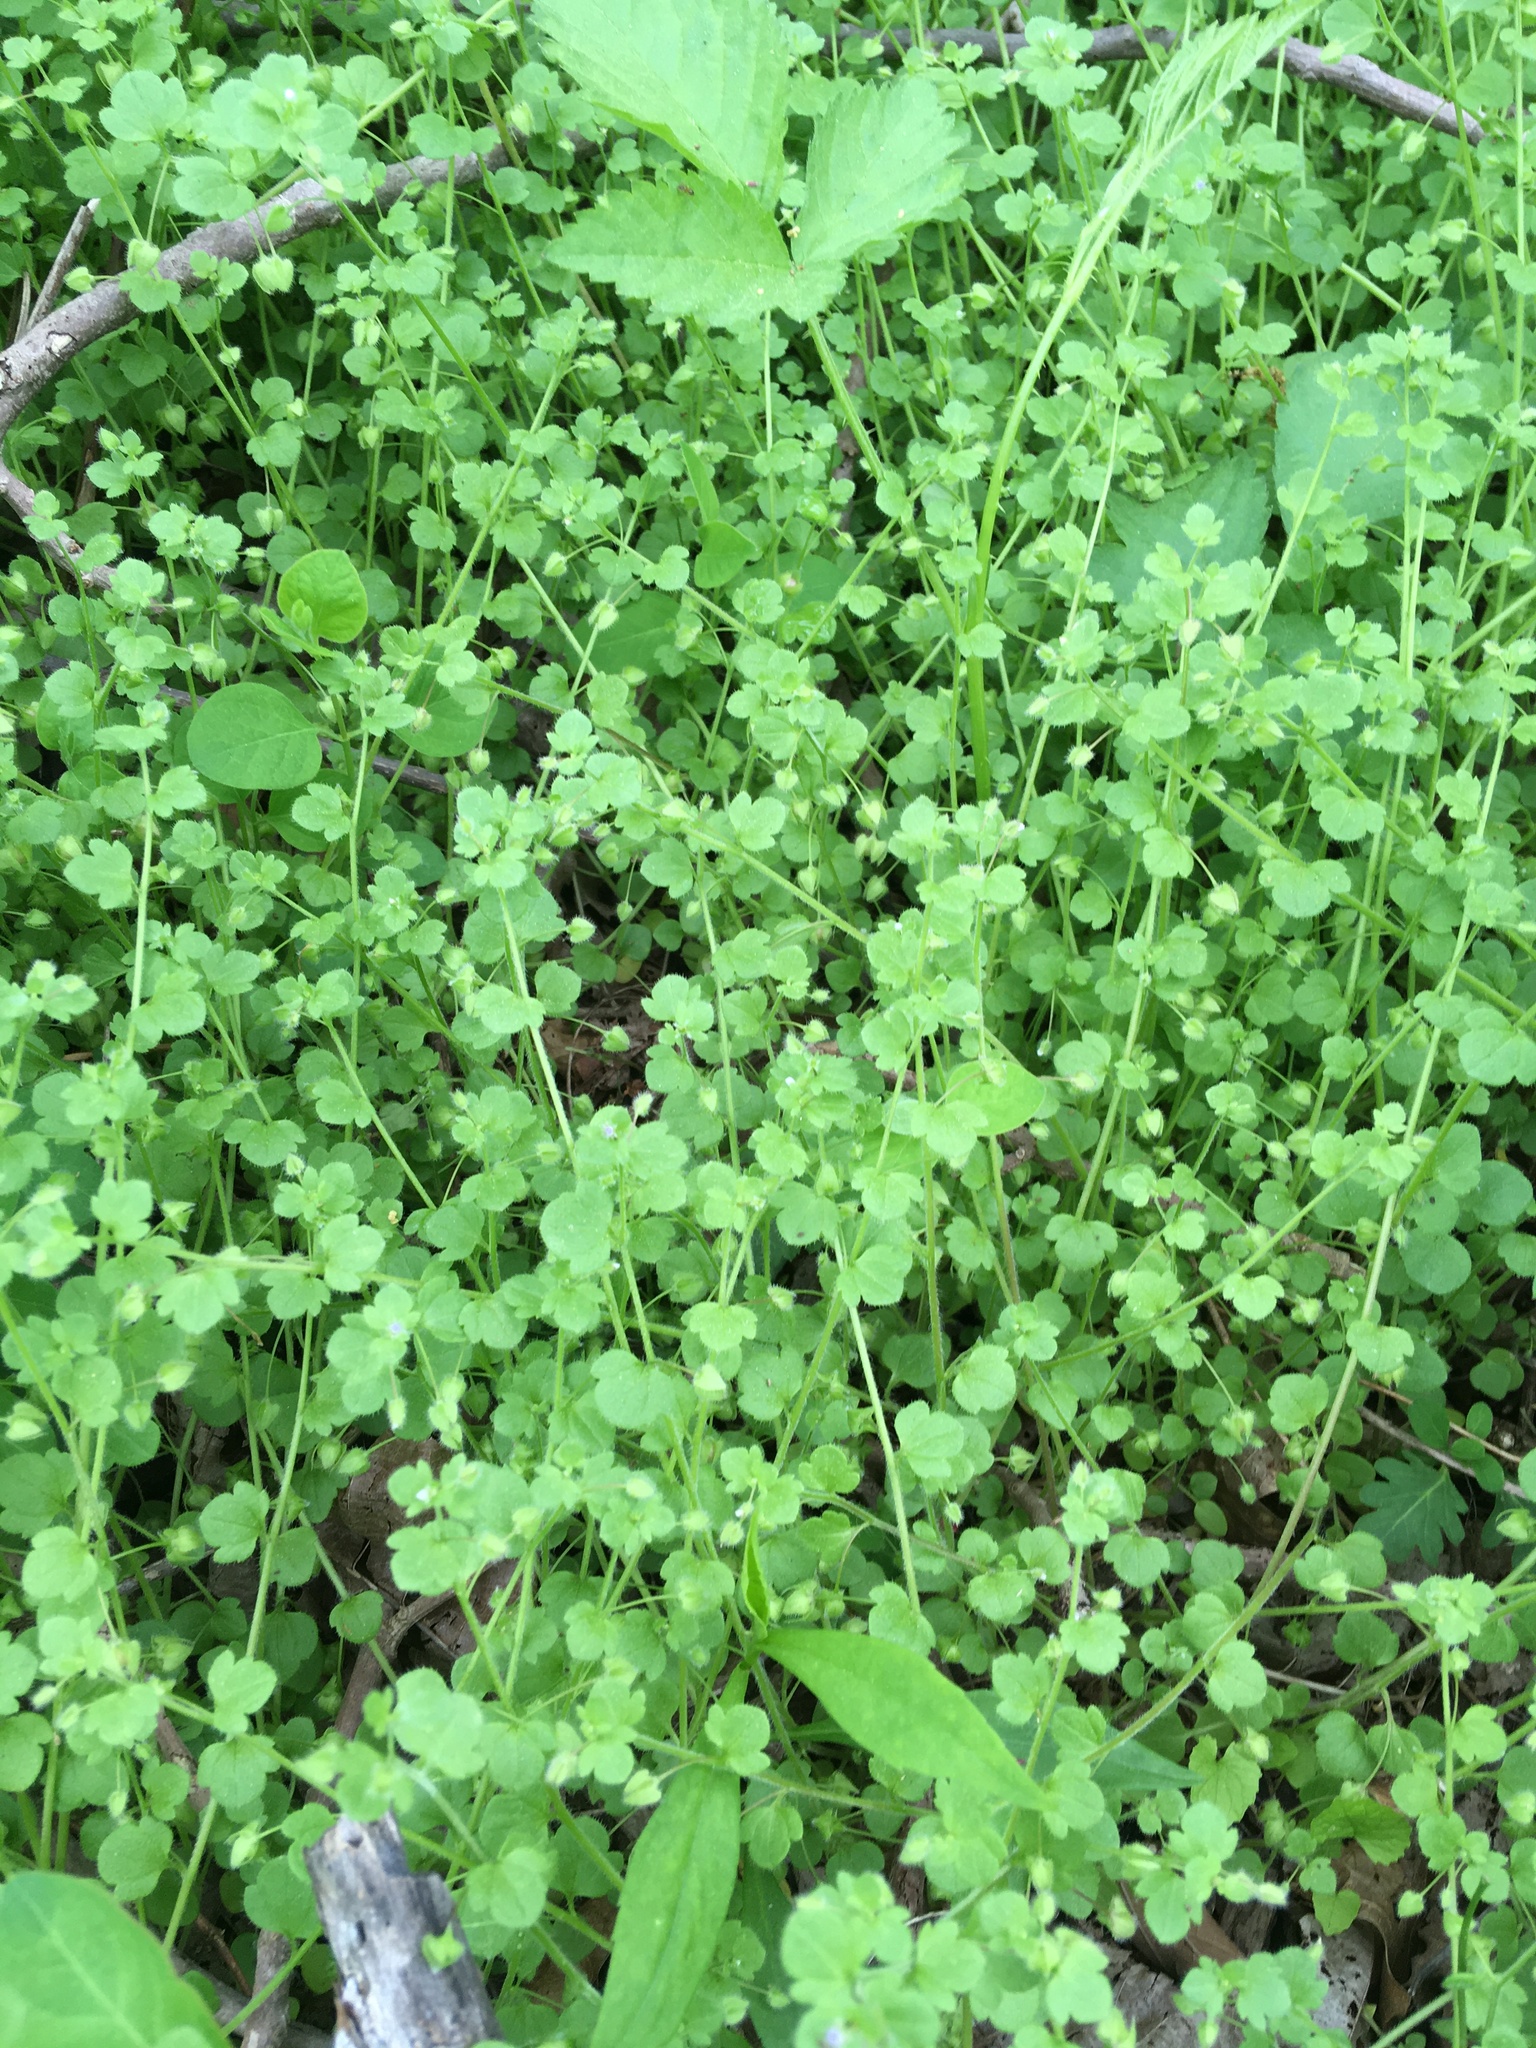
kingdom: Plantae
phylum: Tracheophyta
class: Magnoliopsida
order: Lamiales
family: Plantaginaceae
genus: Veronica
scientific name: Veronica hederifolia
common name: Ivy-leaved speedwell
